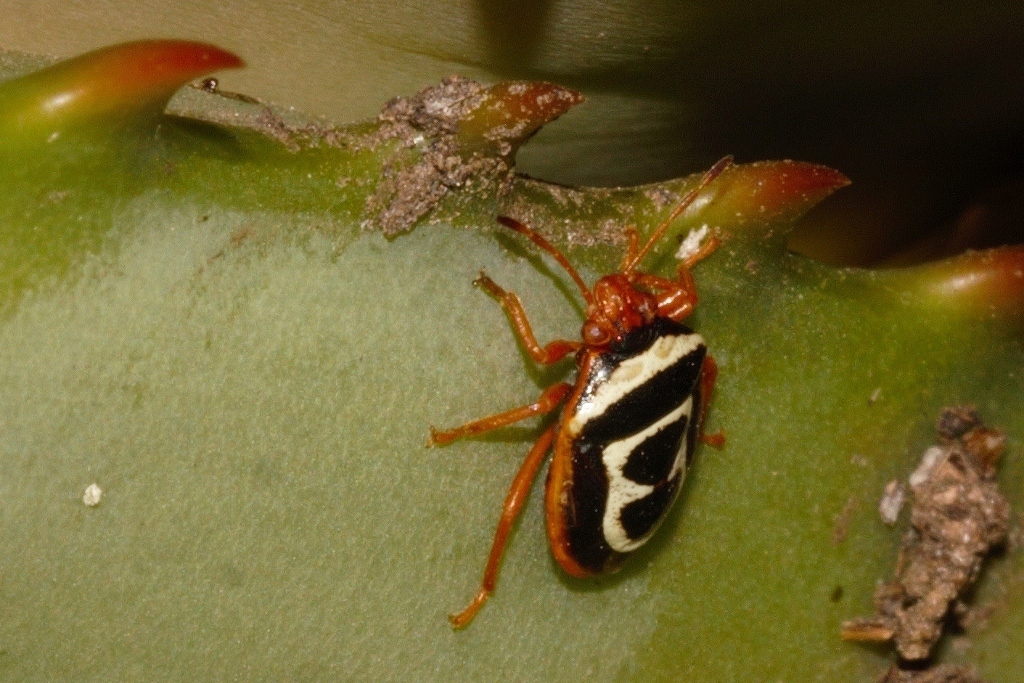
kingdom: Animalia
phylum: Arthropoda
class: Insecta
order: Hemiptera
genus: Flaminia
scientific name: Flaminia
